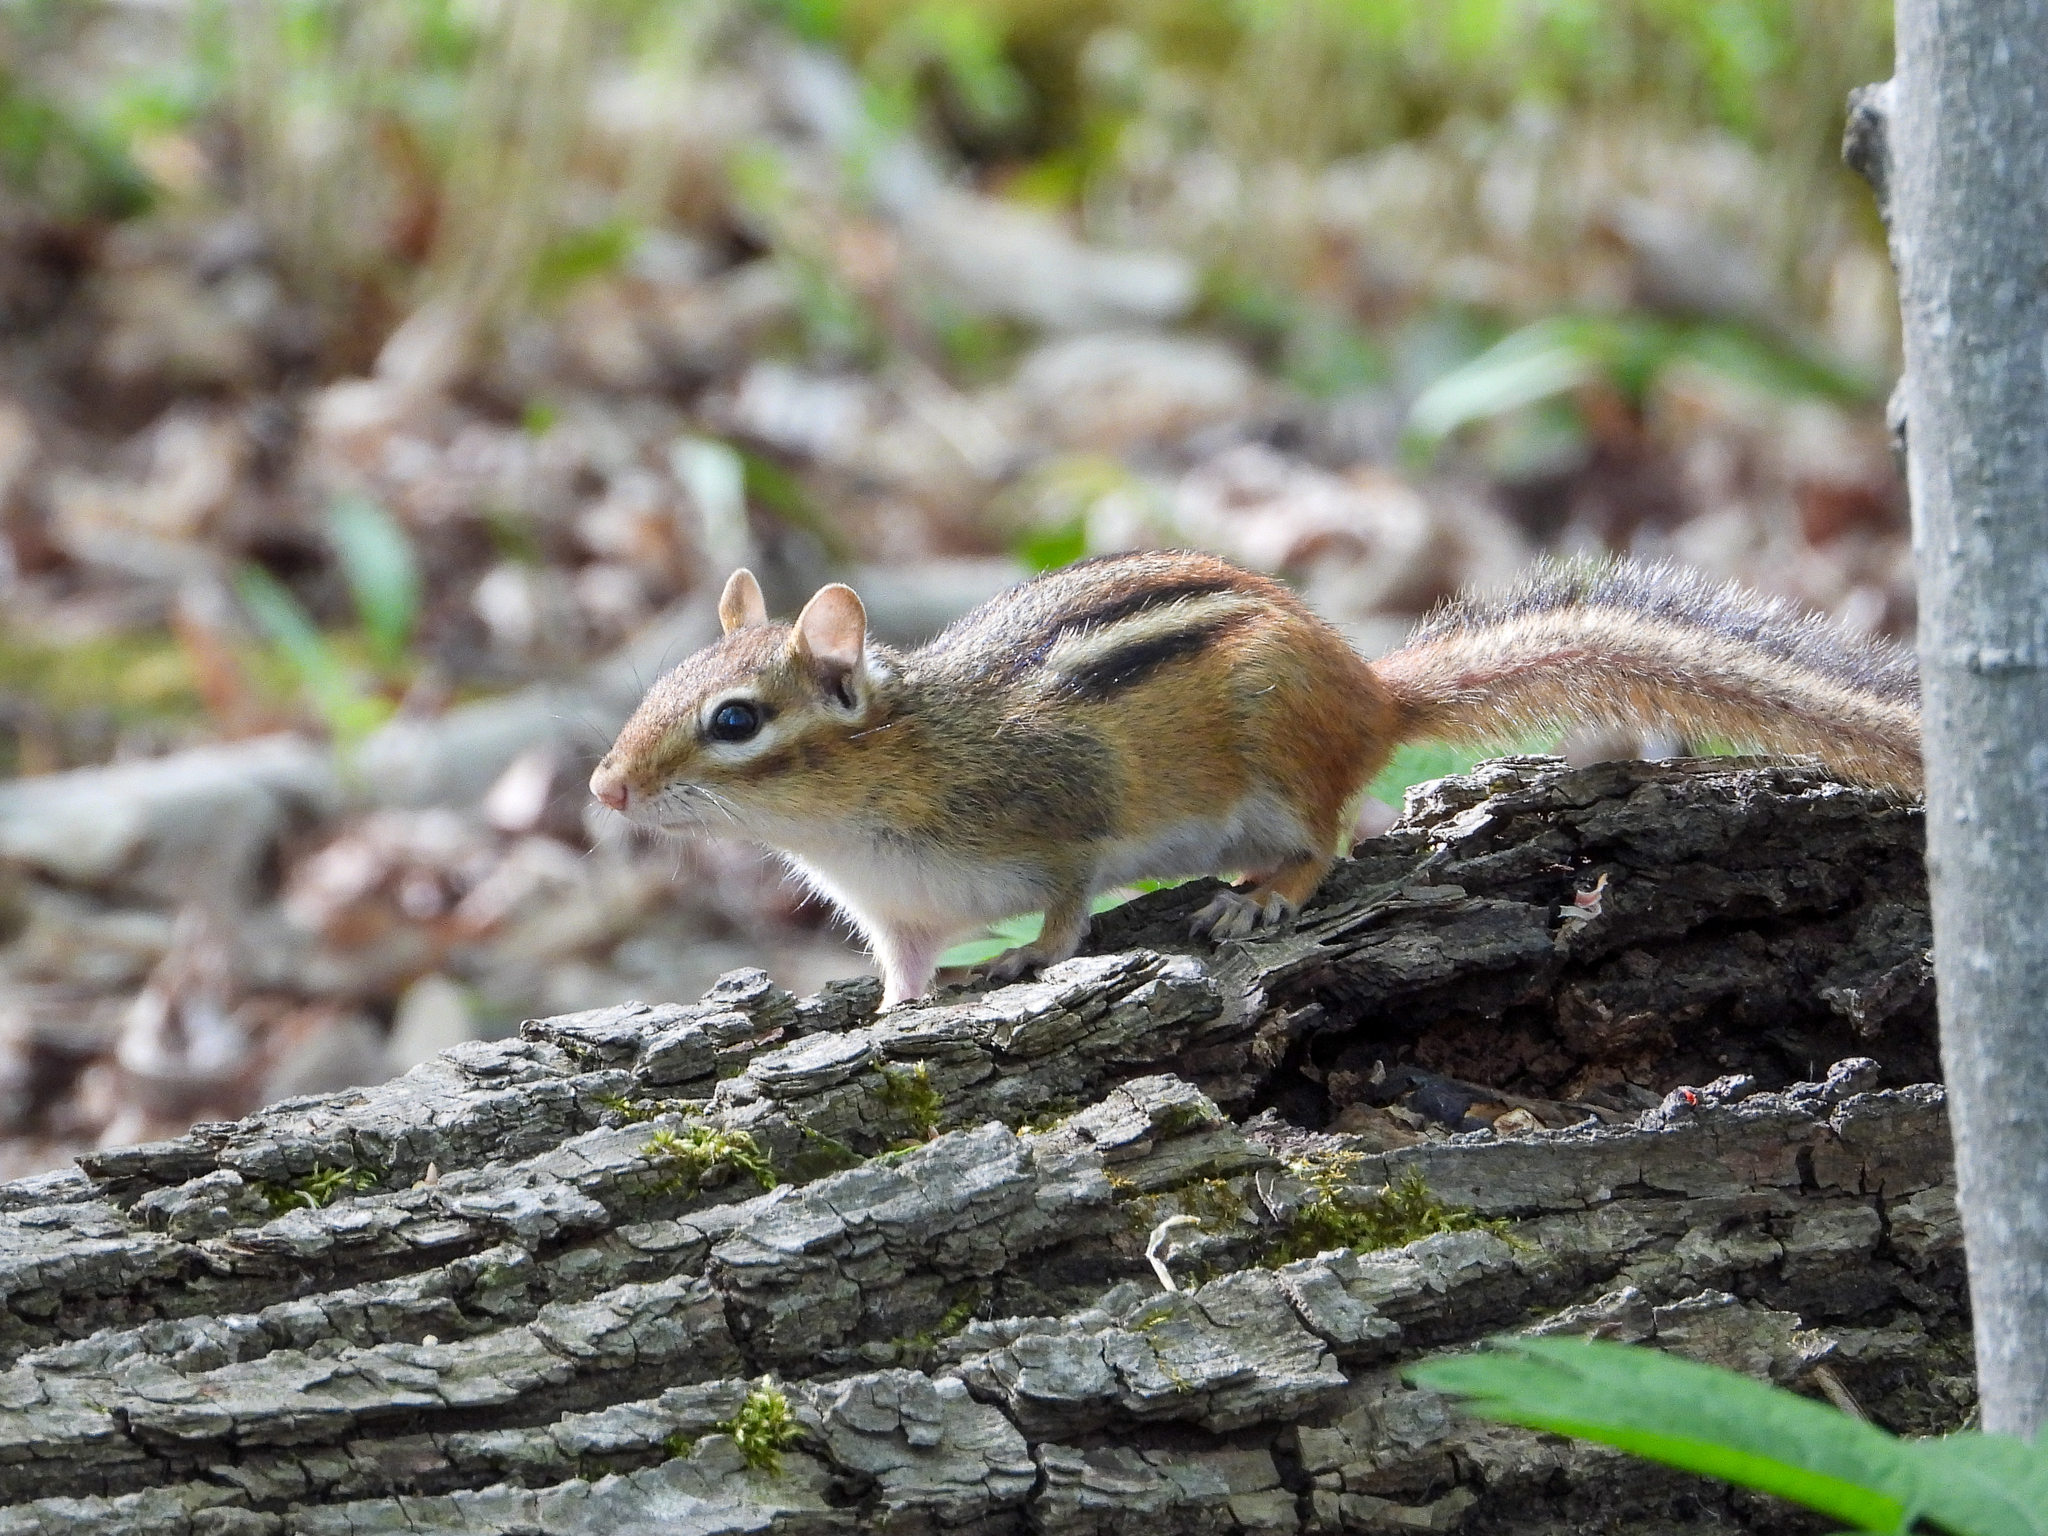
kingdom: Animalia
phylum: Chordata
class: Mammalia
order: Rodentia
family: Sciuridae
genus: Tamias
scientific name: Tamias striatus
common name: Eastern chipmunk
